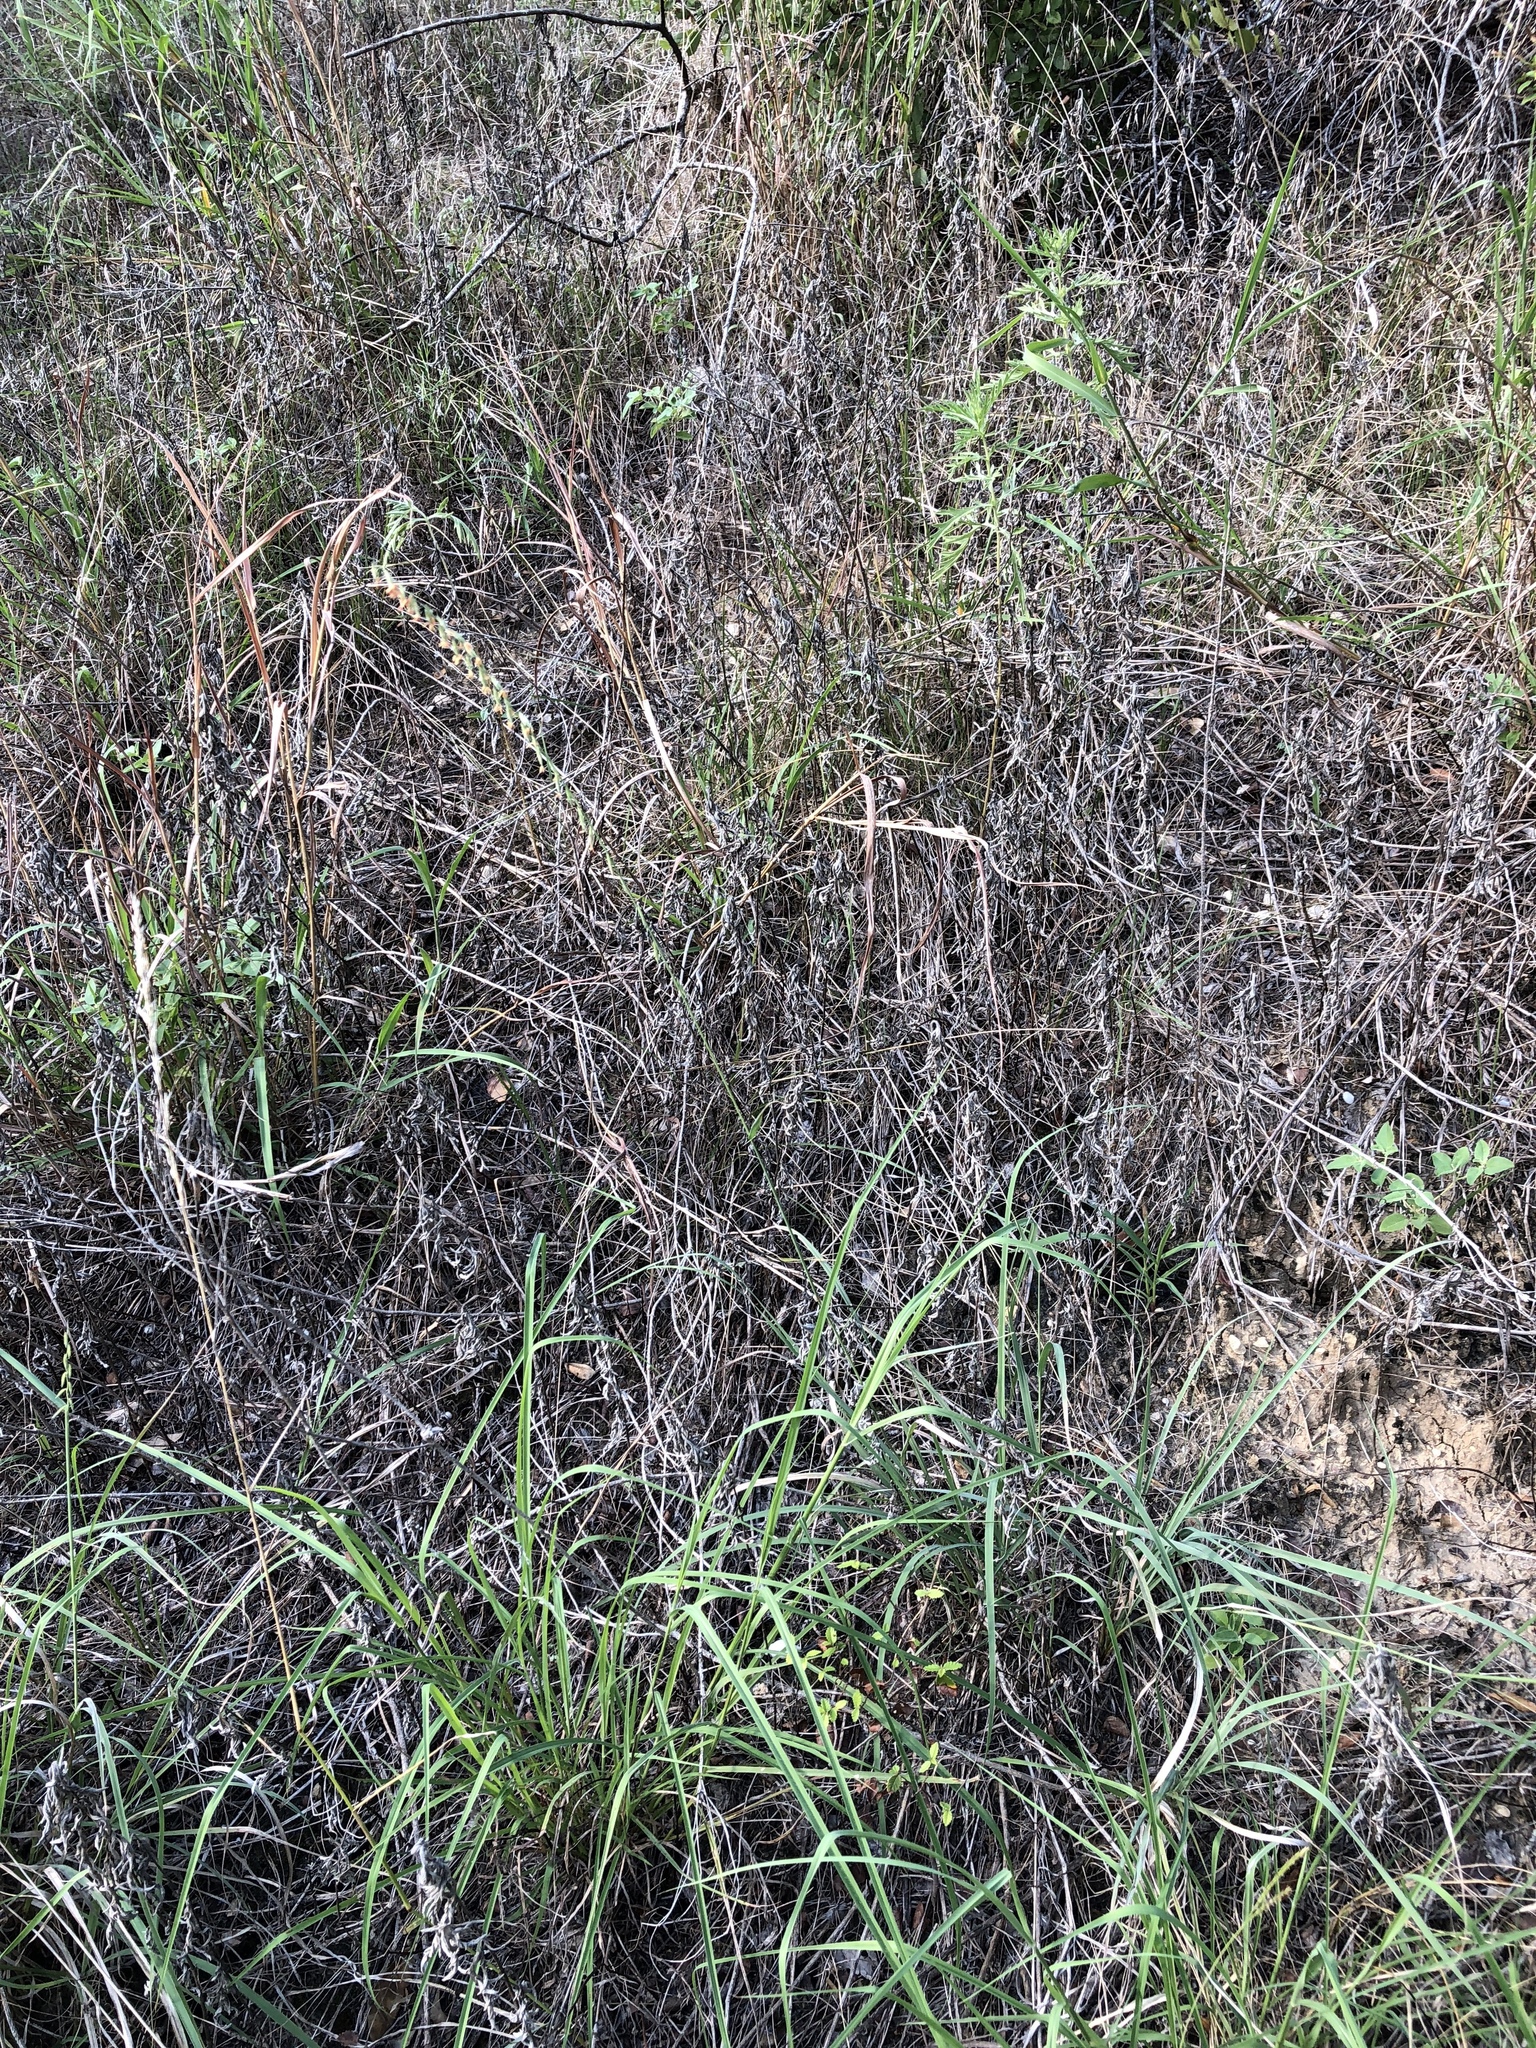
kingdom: Plantae
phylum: Tracheophyta
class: Liliopsida
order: Poales
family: Poaceae
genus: Bouteloua
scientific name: Bouteloua curtipendula
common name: Side-oats grama
